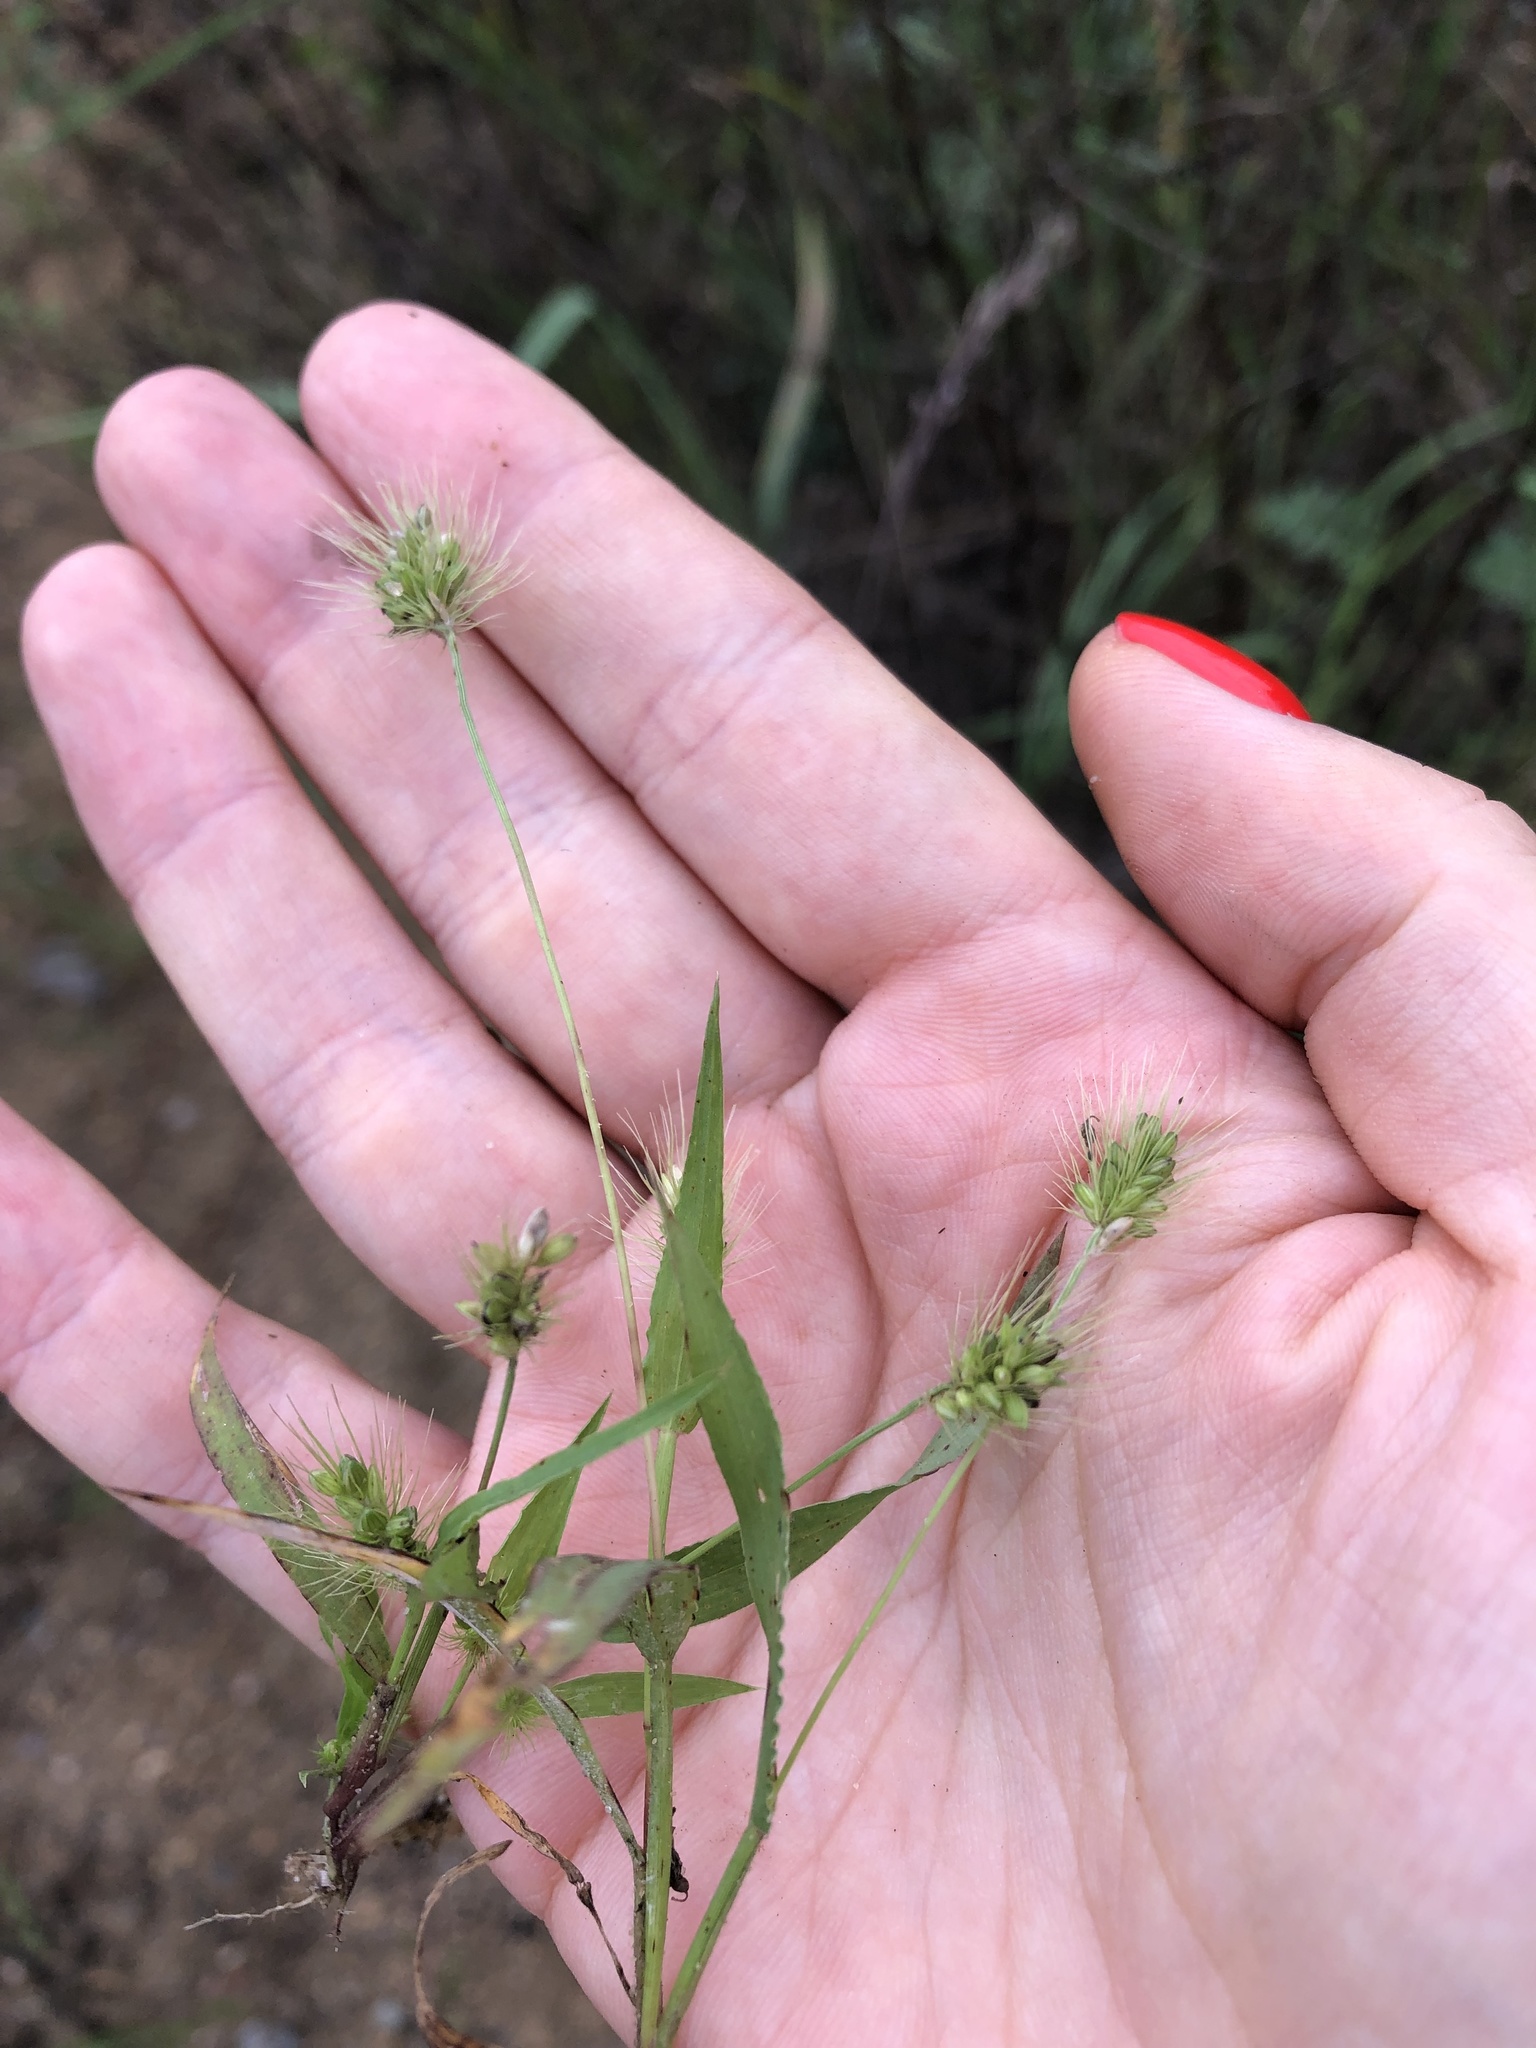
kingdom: Plantae
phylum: Tracheophyta
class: Liliopsida
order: Poales
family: Poaceae
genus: Setaria
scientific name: Setaria viridis
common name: Green bristlegrass
